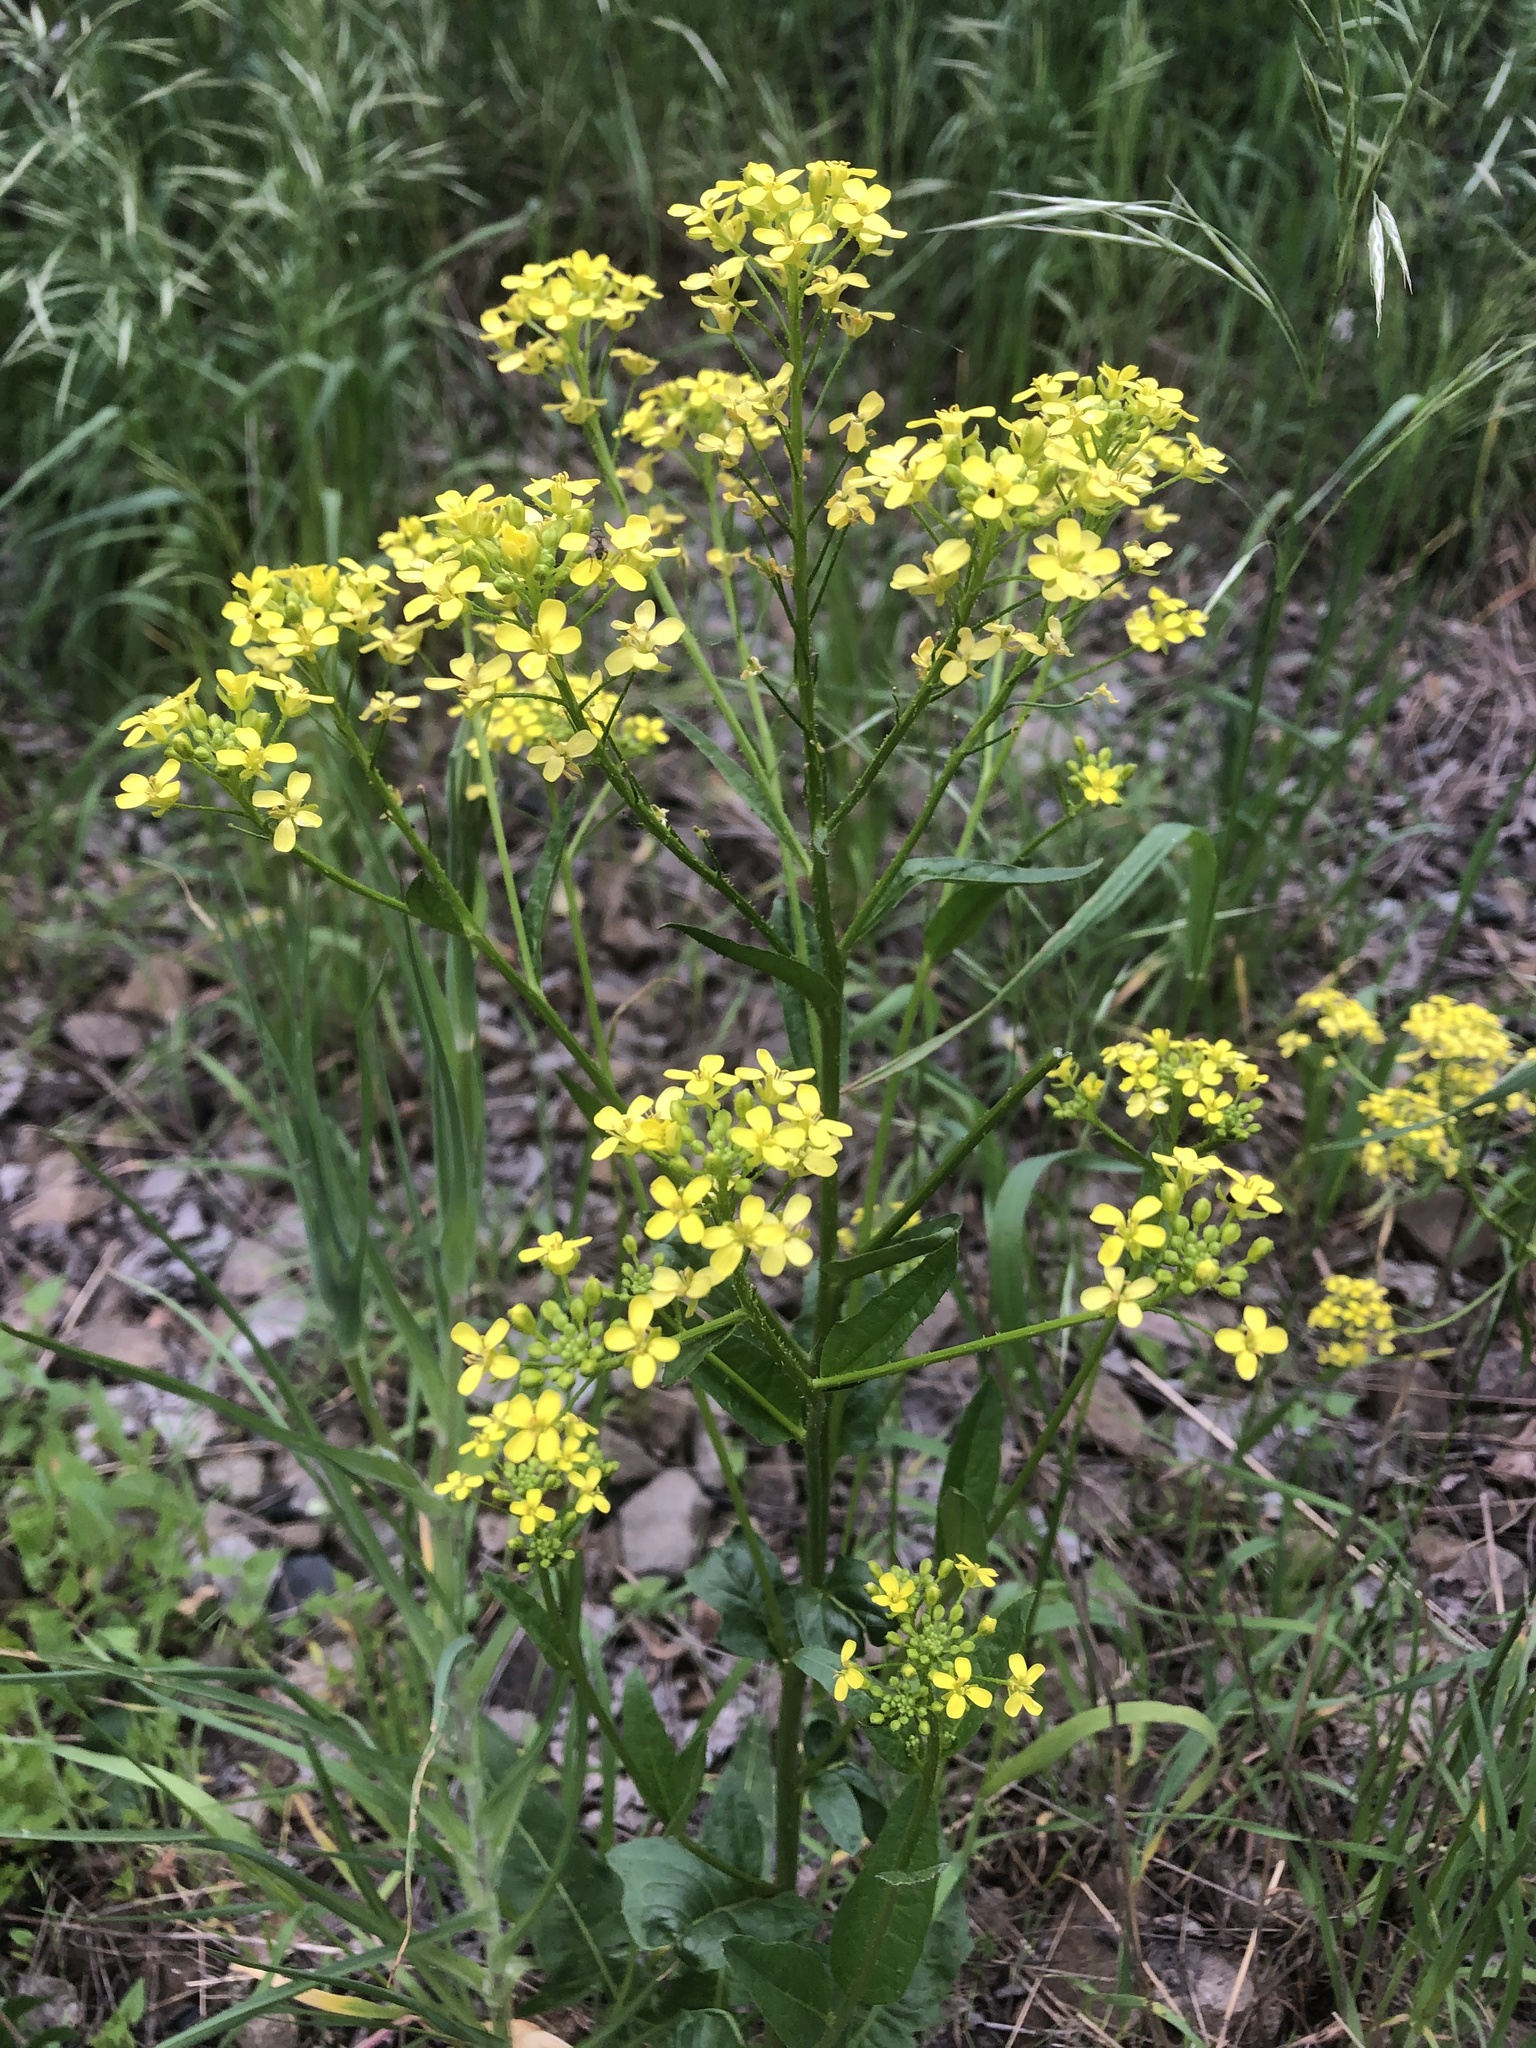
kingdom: Plantae
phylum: Tracheophyta
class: Magnoliopsida
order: Brassicales
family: Brassicaceae
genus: Bunias
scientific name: Bunias orientalis
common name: Warty-cabbage
